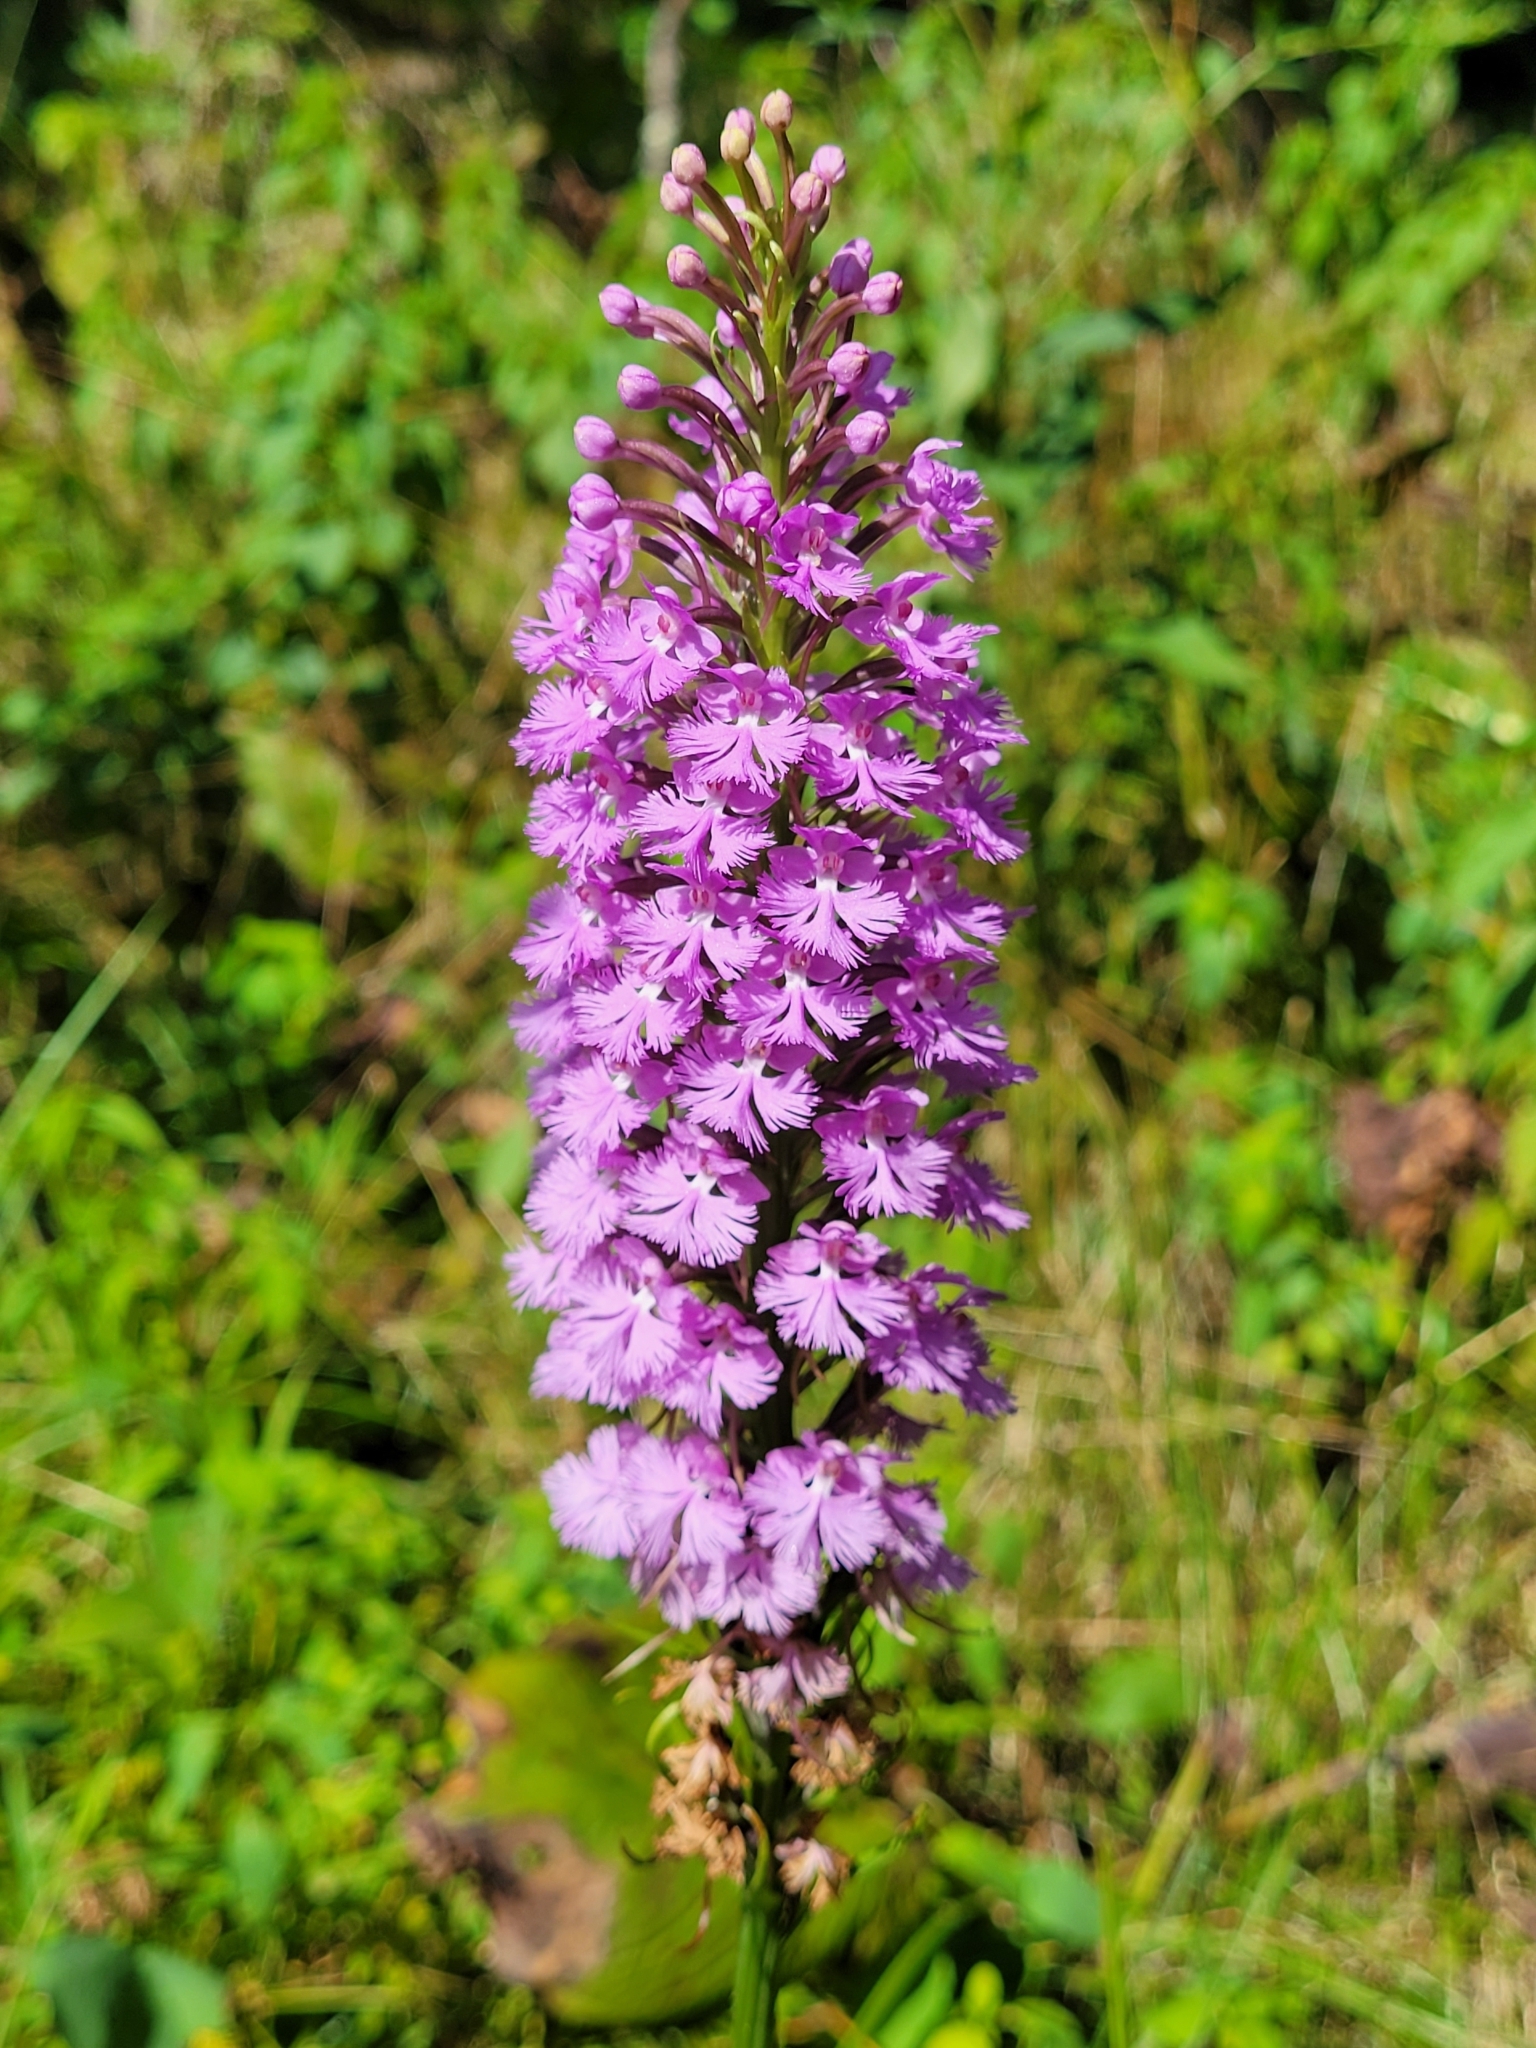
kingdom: Plantae
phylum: Tracheophyta
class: Liliopsida
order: Asparagales
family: Orchidaceae
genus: Platanthera
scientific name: Platanthera psycodes
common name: Lesser purple fringed orchid
